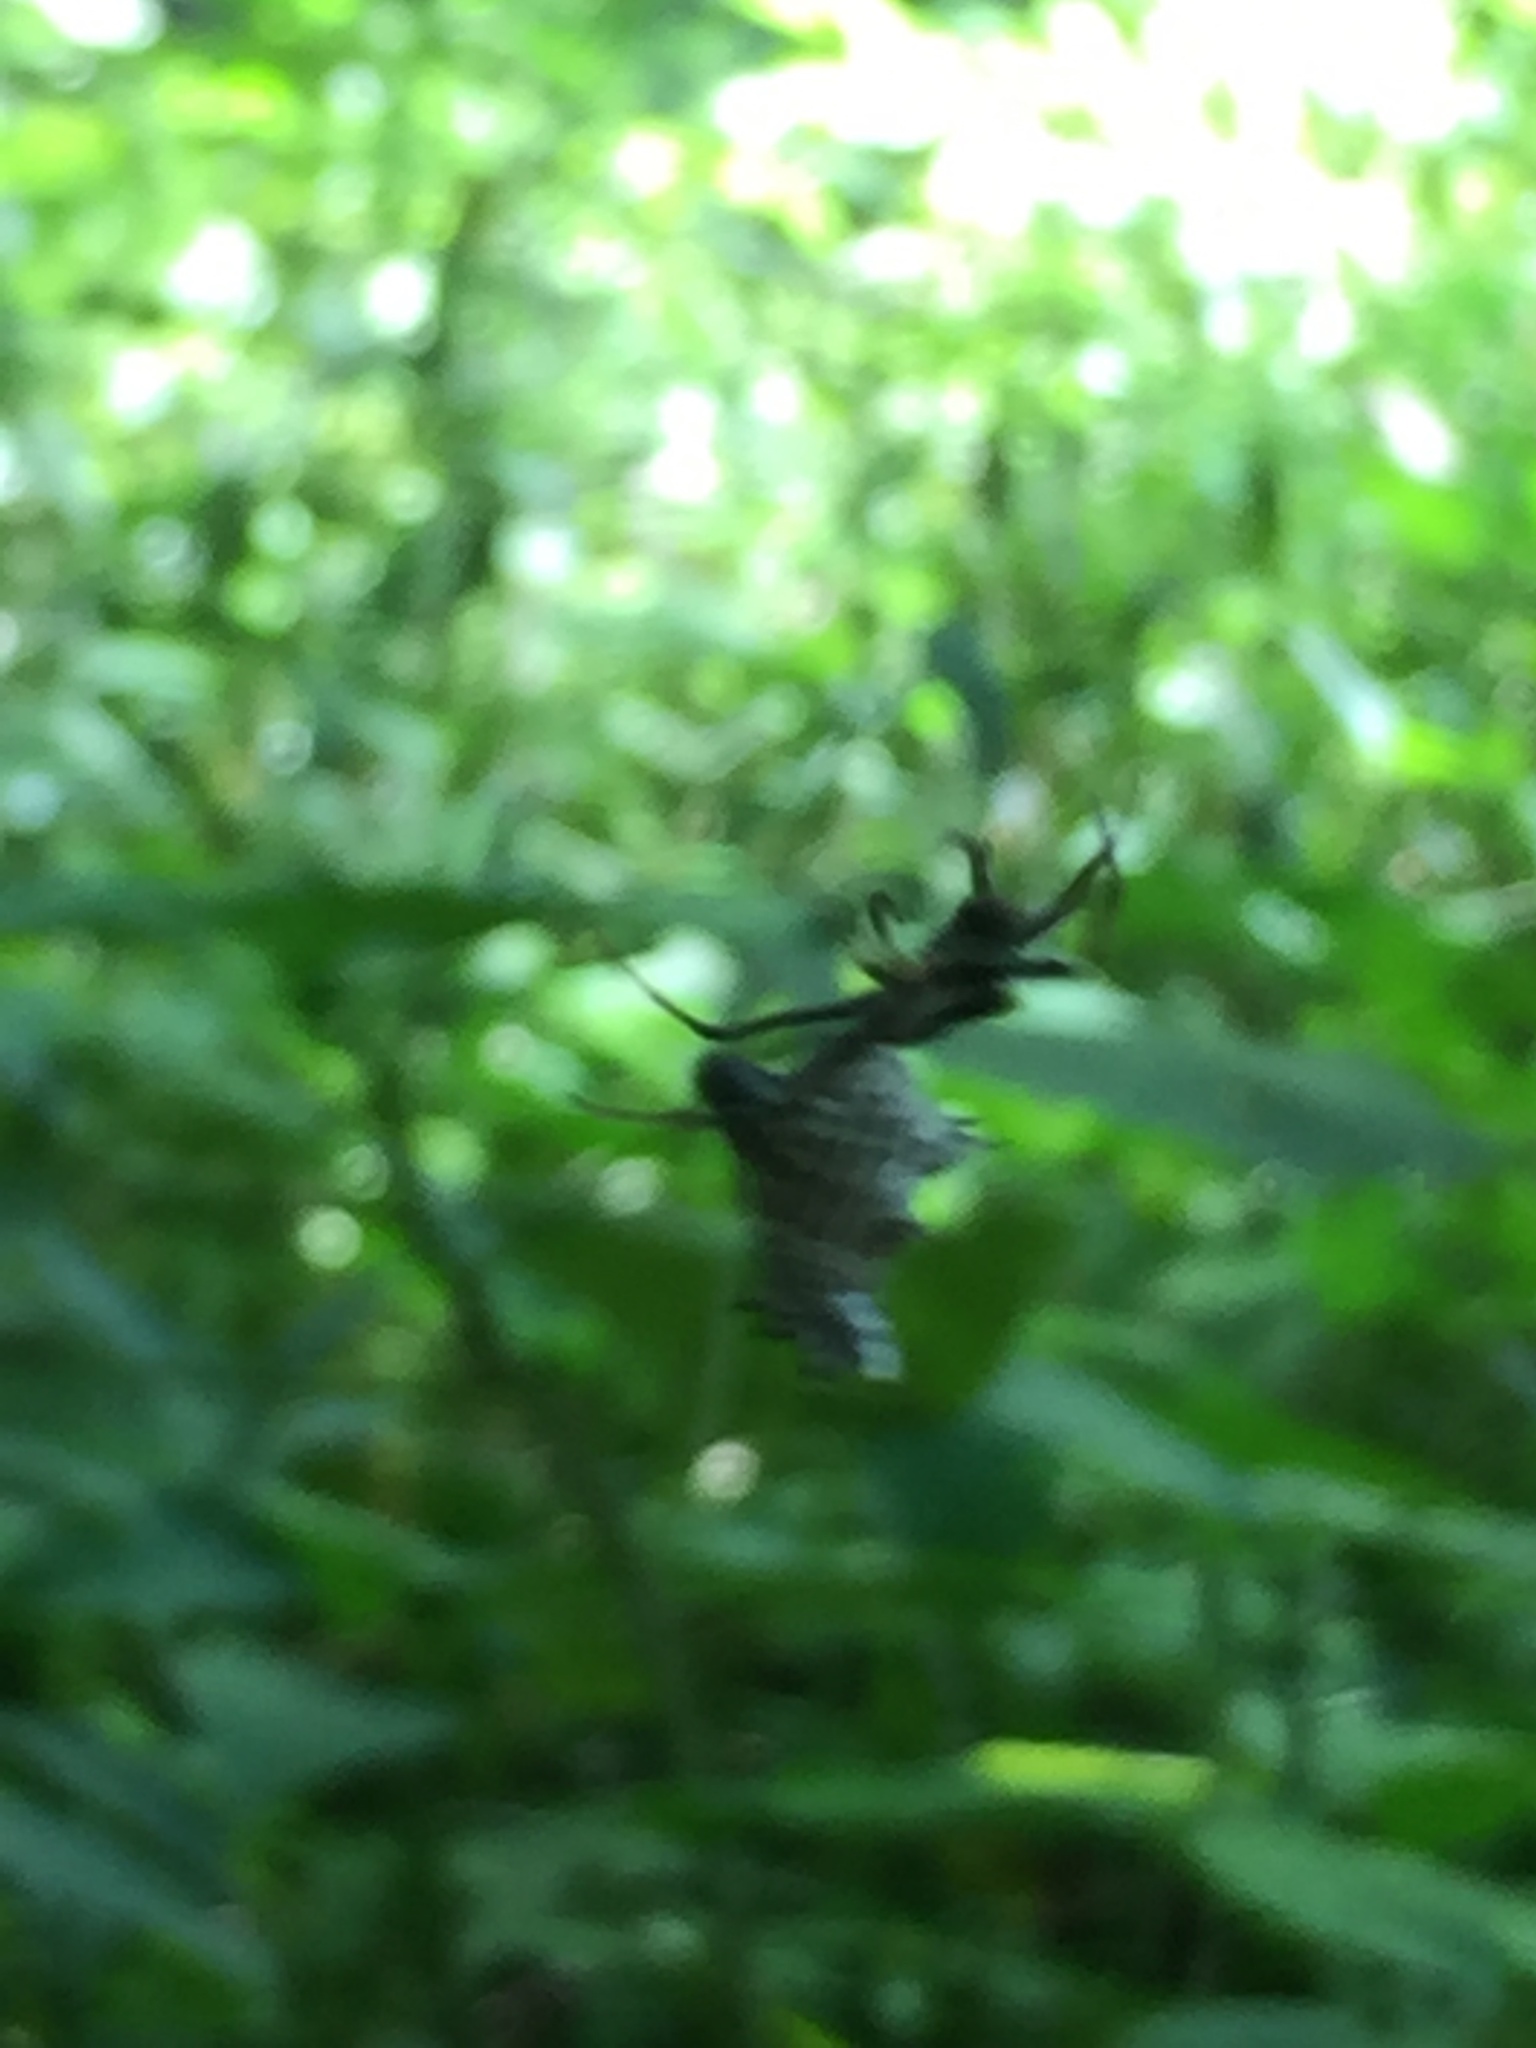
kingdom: Animalia
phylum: Arthropoda
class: Arachnida
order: Araneae
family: Araneidae
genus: Micrathena
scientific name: Micrathena gracilis
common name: Orb weavers
